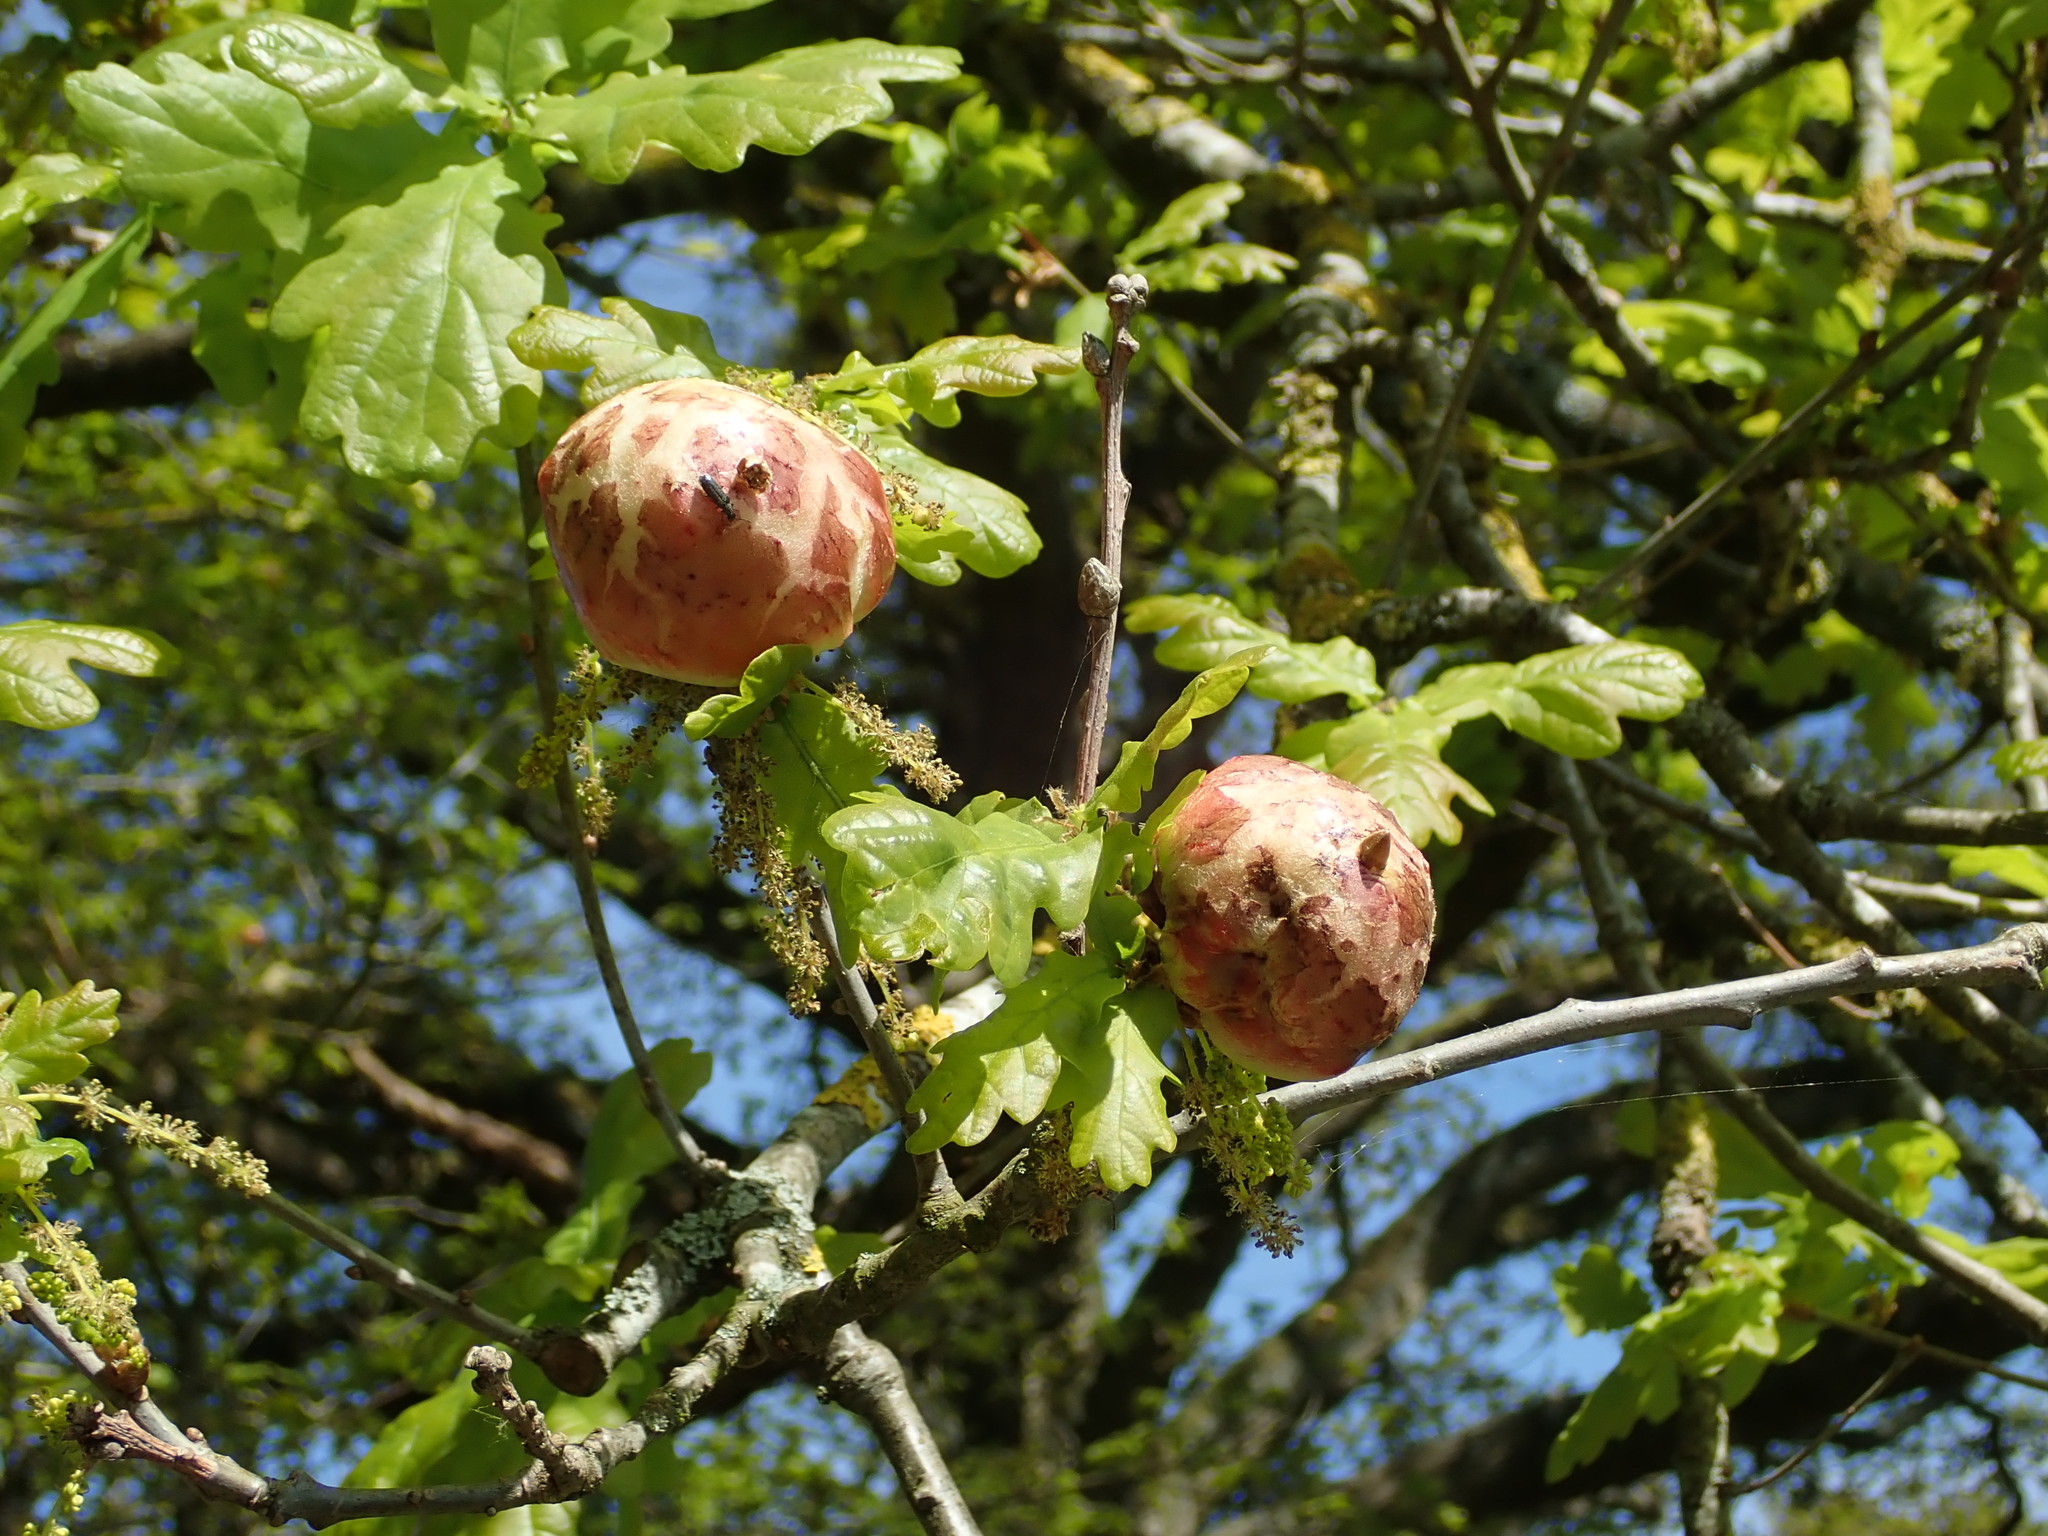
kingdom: Animalia
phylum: Arthropoda
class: Insecta
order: Hymenoptera
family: Cynipidae
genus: Biorhiza
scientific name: Biorhiza pallida
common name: Oak apple
